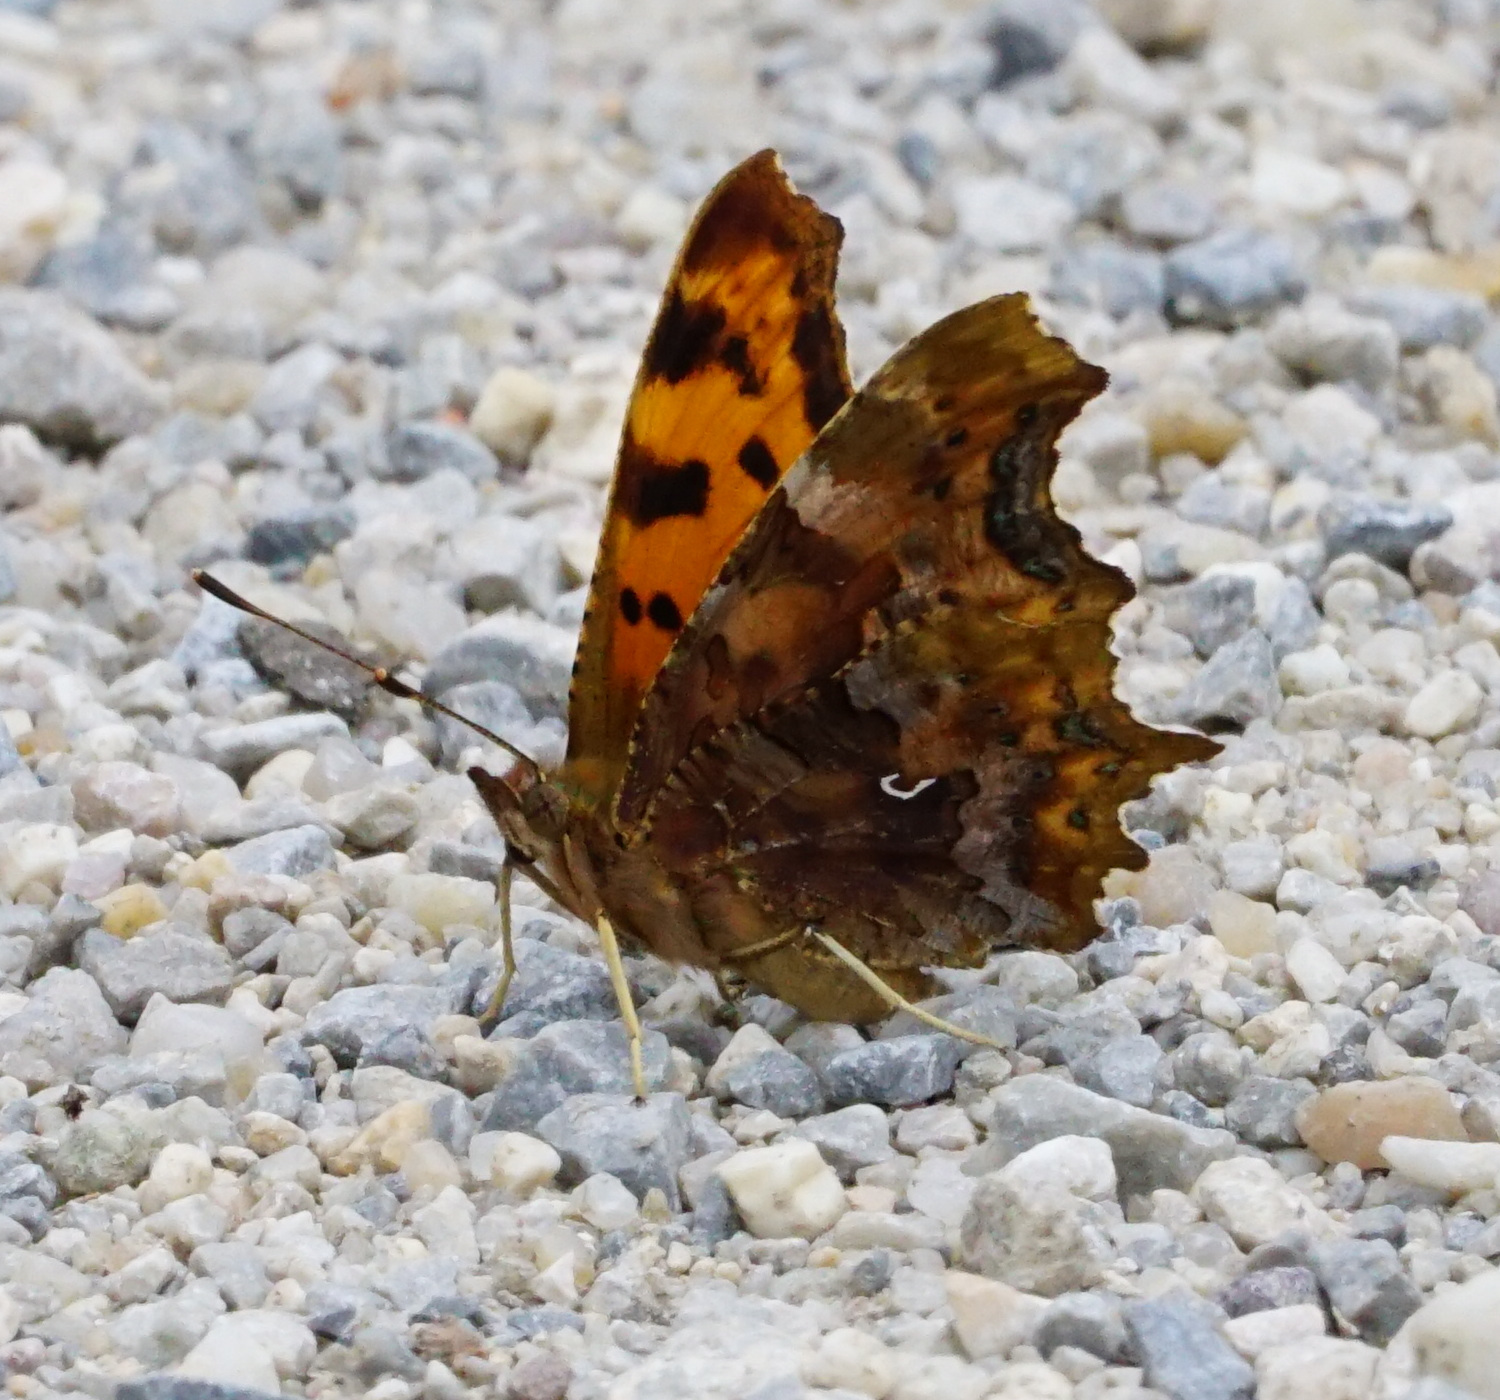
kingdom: Animalia
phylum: Arthropoda
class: Insecta
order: Lepidoptera
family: Nymphalidae
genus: Polygonia
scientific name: Polygonia c-album
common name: Comma
